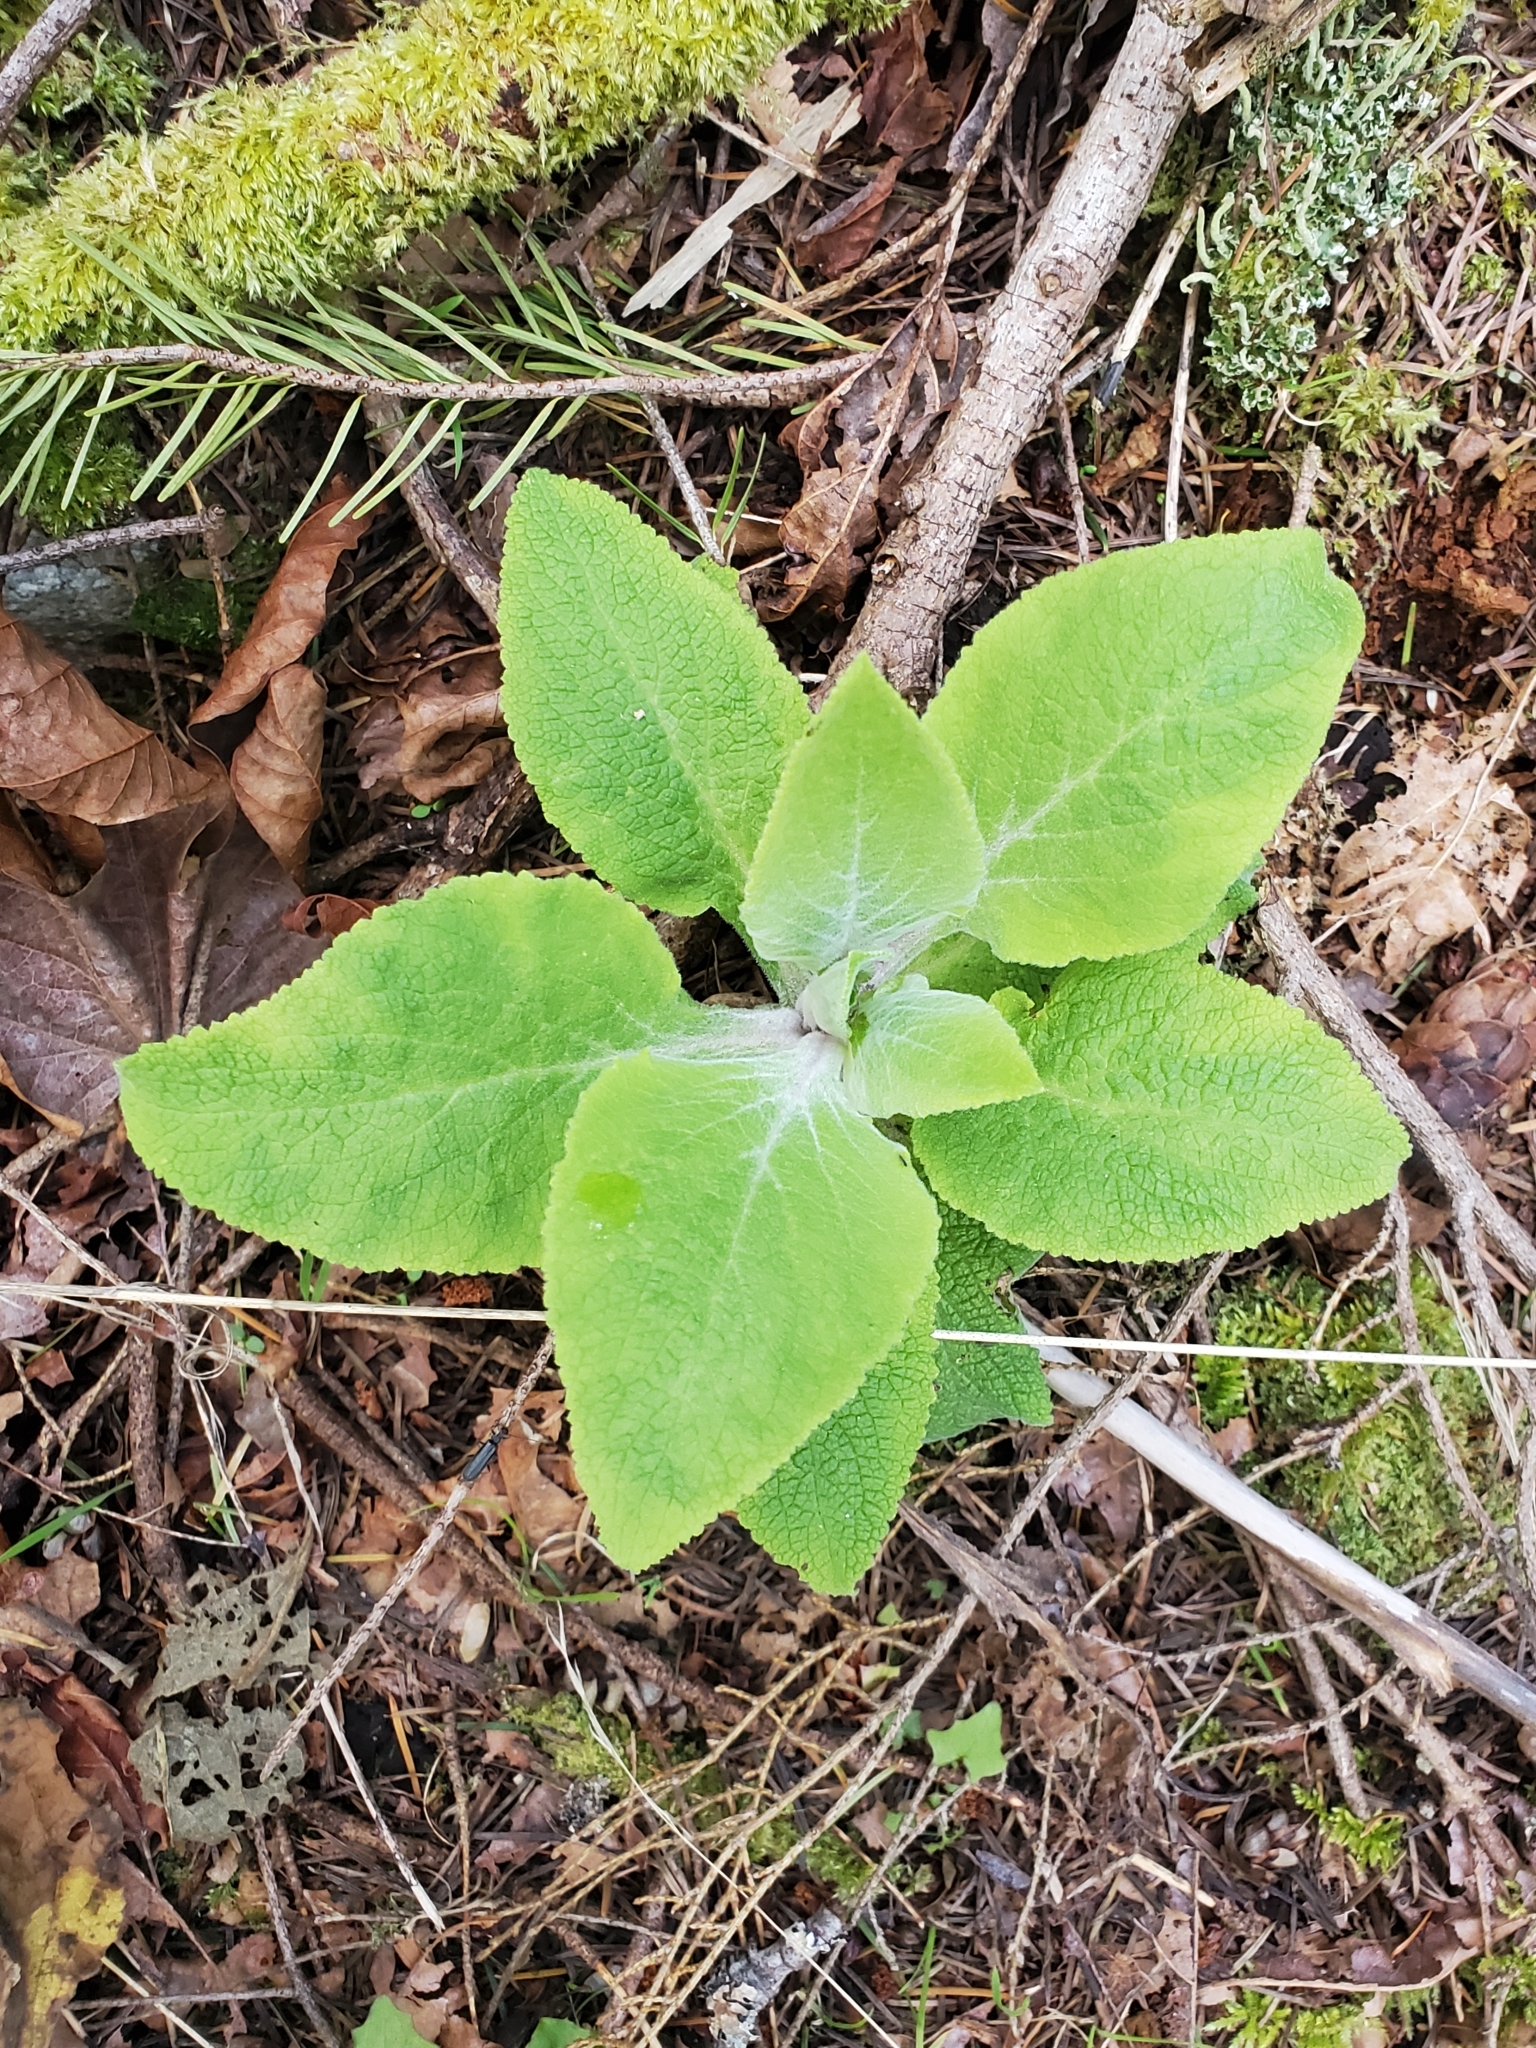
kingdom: Plantae
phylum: Tracheophyta
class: Magnoliopsida
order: Lamiales
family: Plantaginaceae
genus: Digitalis
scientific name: Digitalis purpurea
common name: Foxglove
